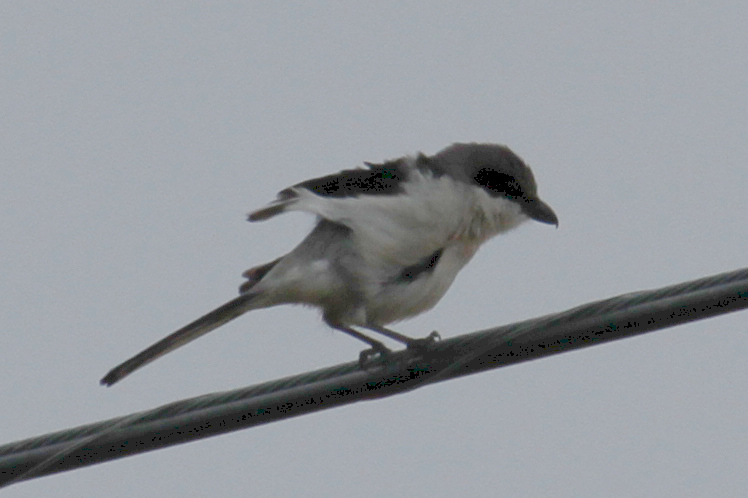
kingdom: Animalia
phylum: Chordata
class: Aves
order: Passeriformes
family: Laniidae
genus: Lanius
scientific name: Lanius ludovicianus
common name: Loggerhead shrike
